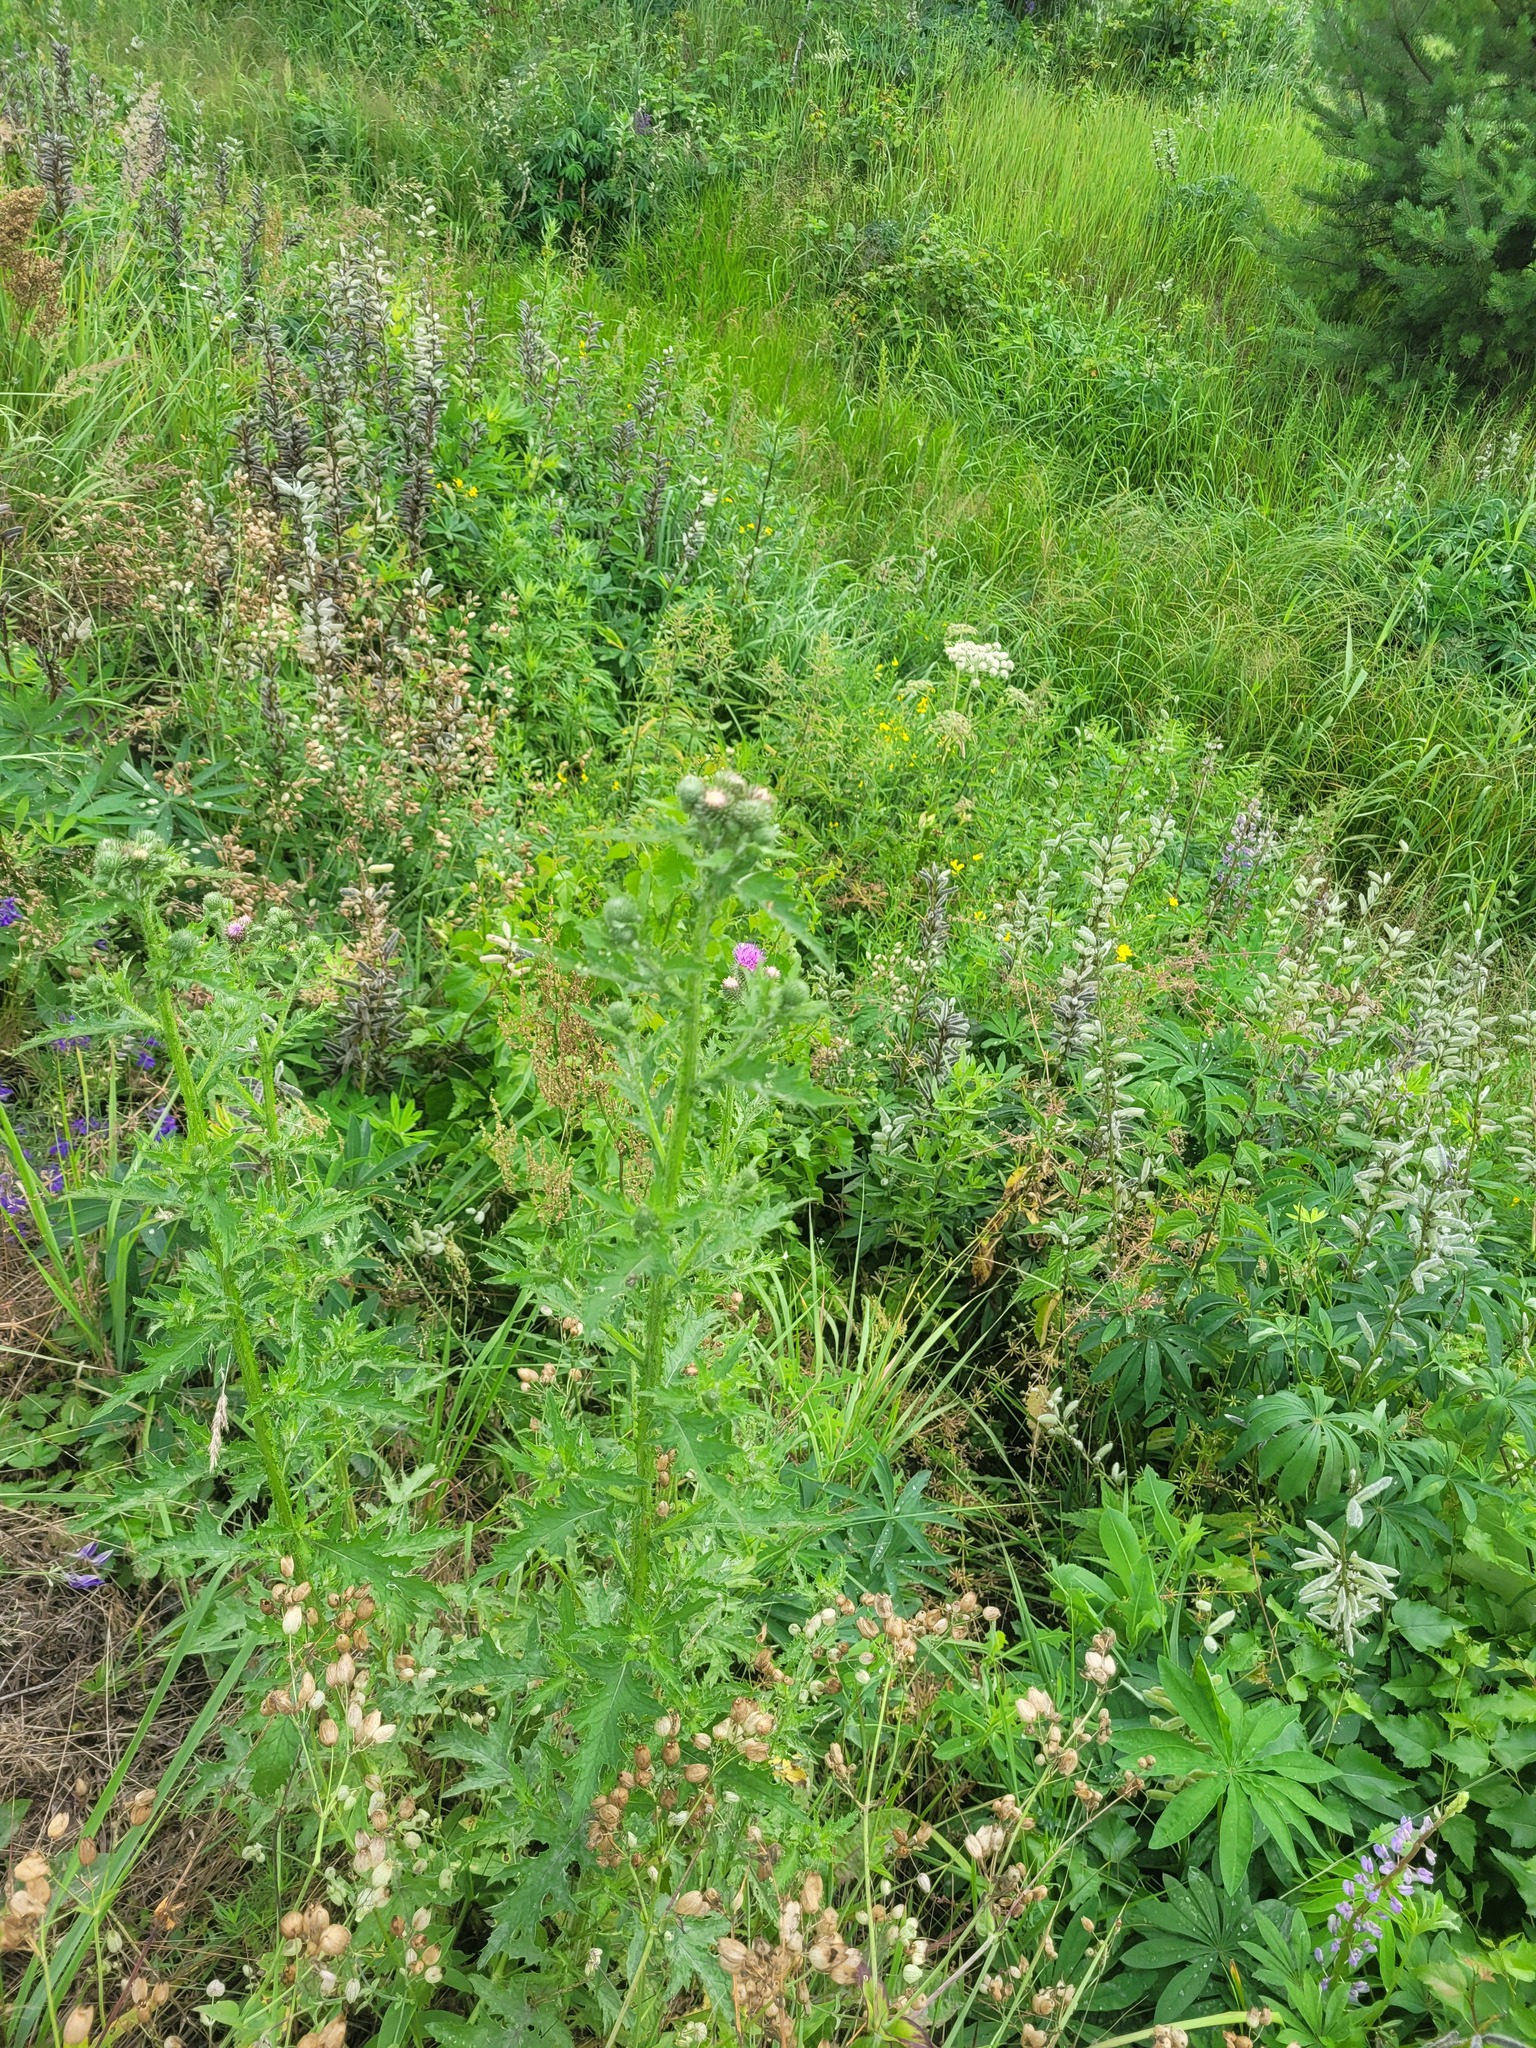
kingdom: Plantae
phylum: Tracheophyta
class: Magnoliopsida
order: Asterales
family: Asteraceae
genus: Carduus
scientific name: Carduus crispus
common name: Welted thistle
